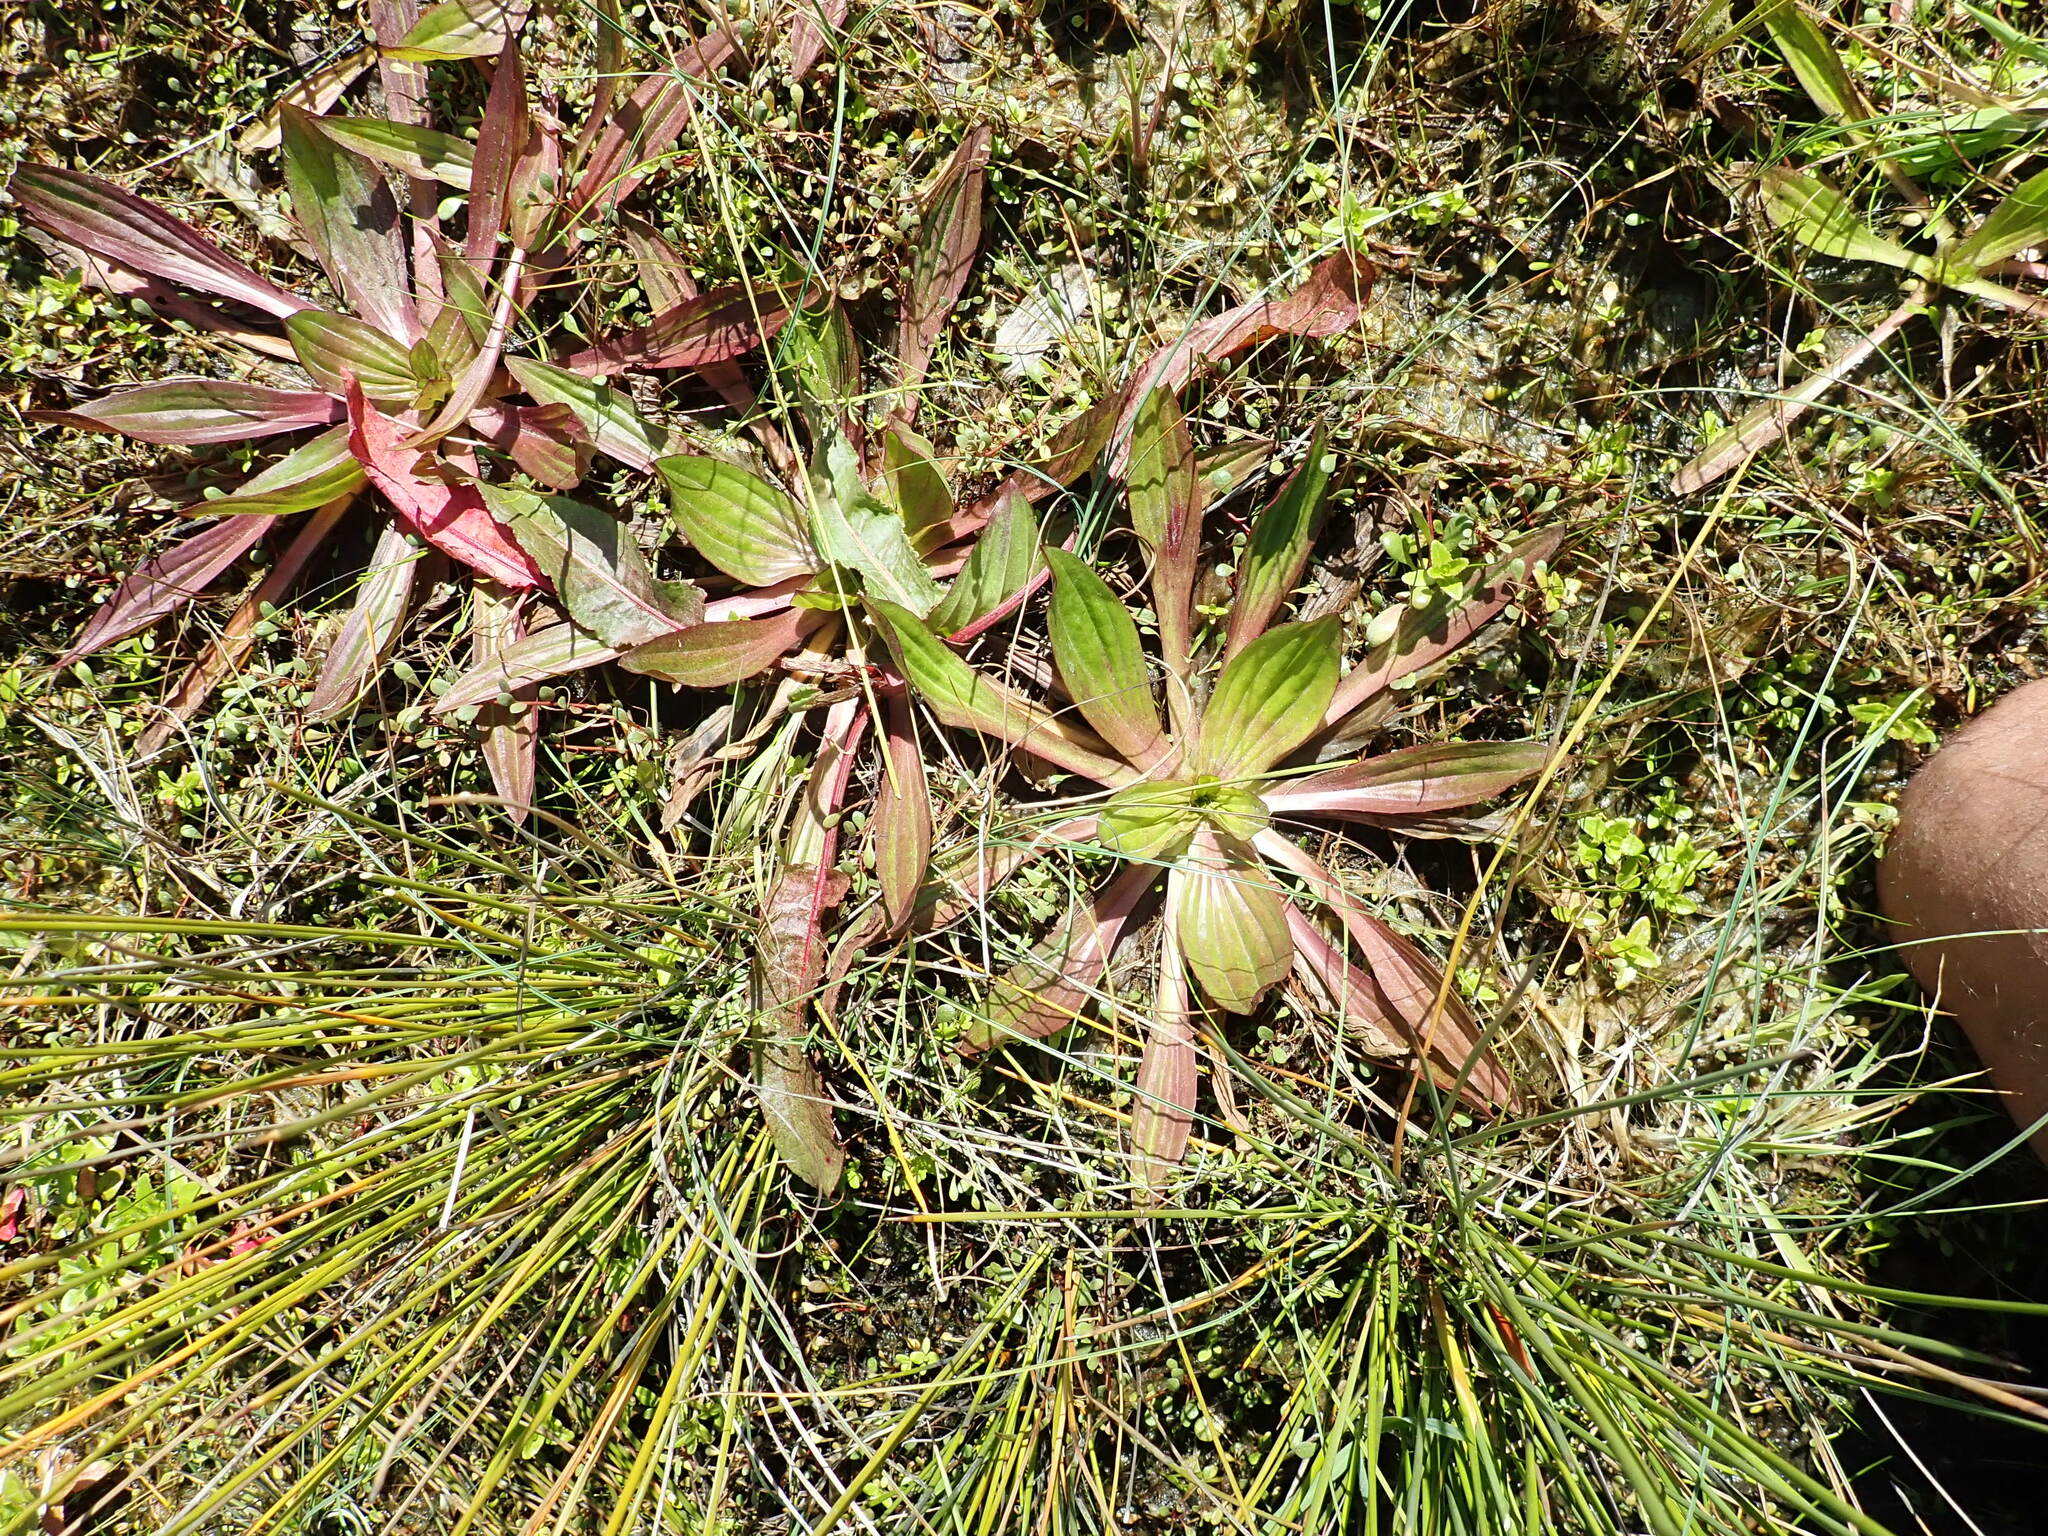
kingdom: Plantae
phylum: Tracheophyta
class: Magnoliopsida
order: Lamiales
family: Plantaginaceae
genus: Plantago
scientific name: Plantago australis
